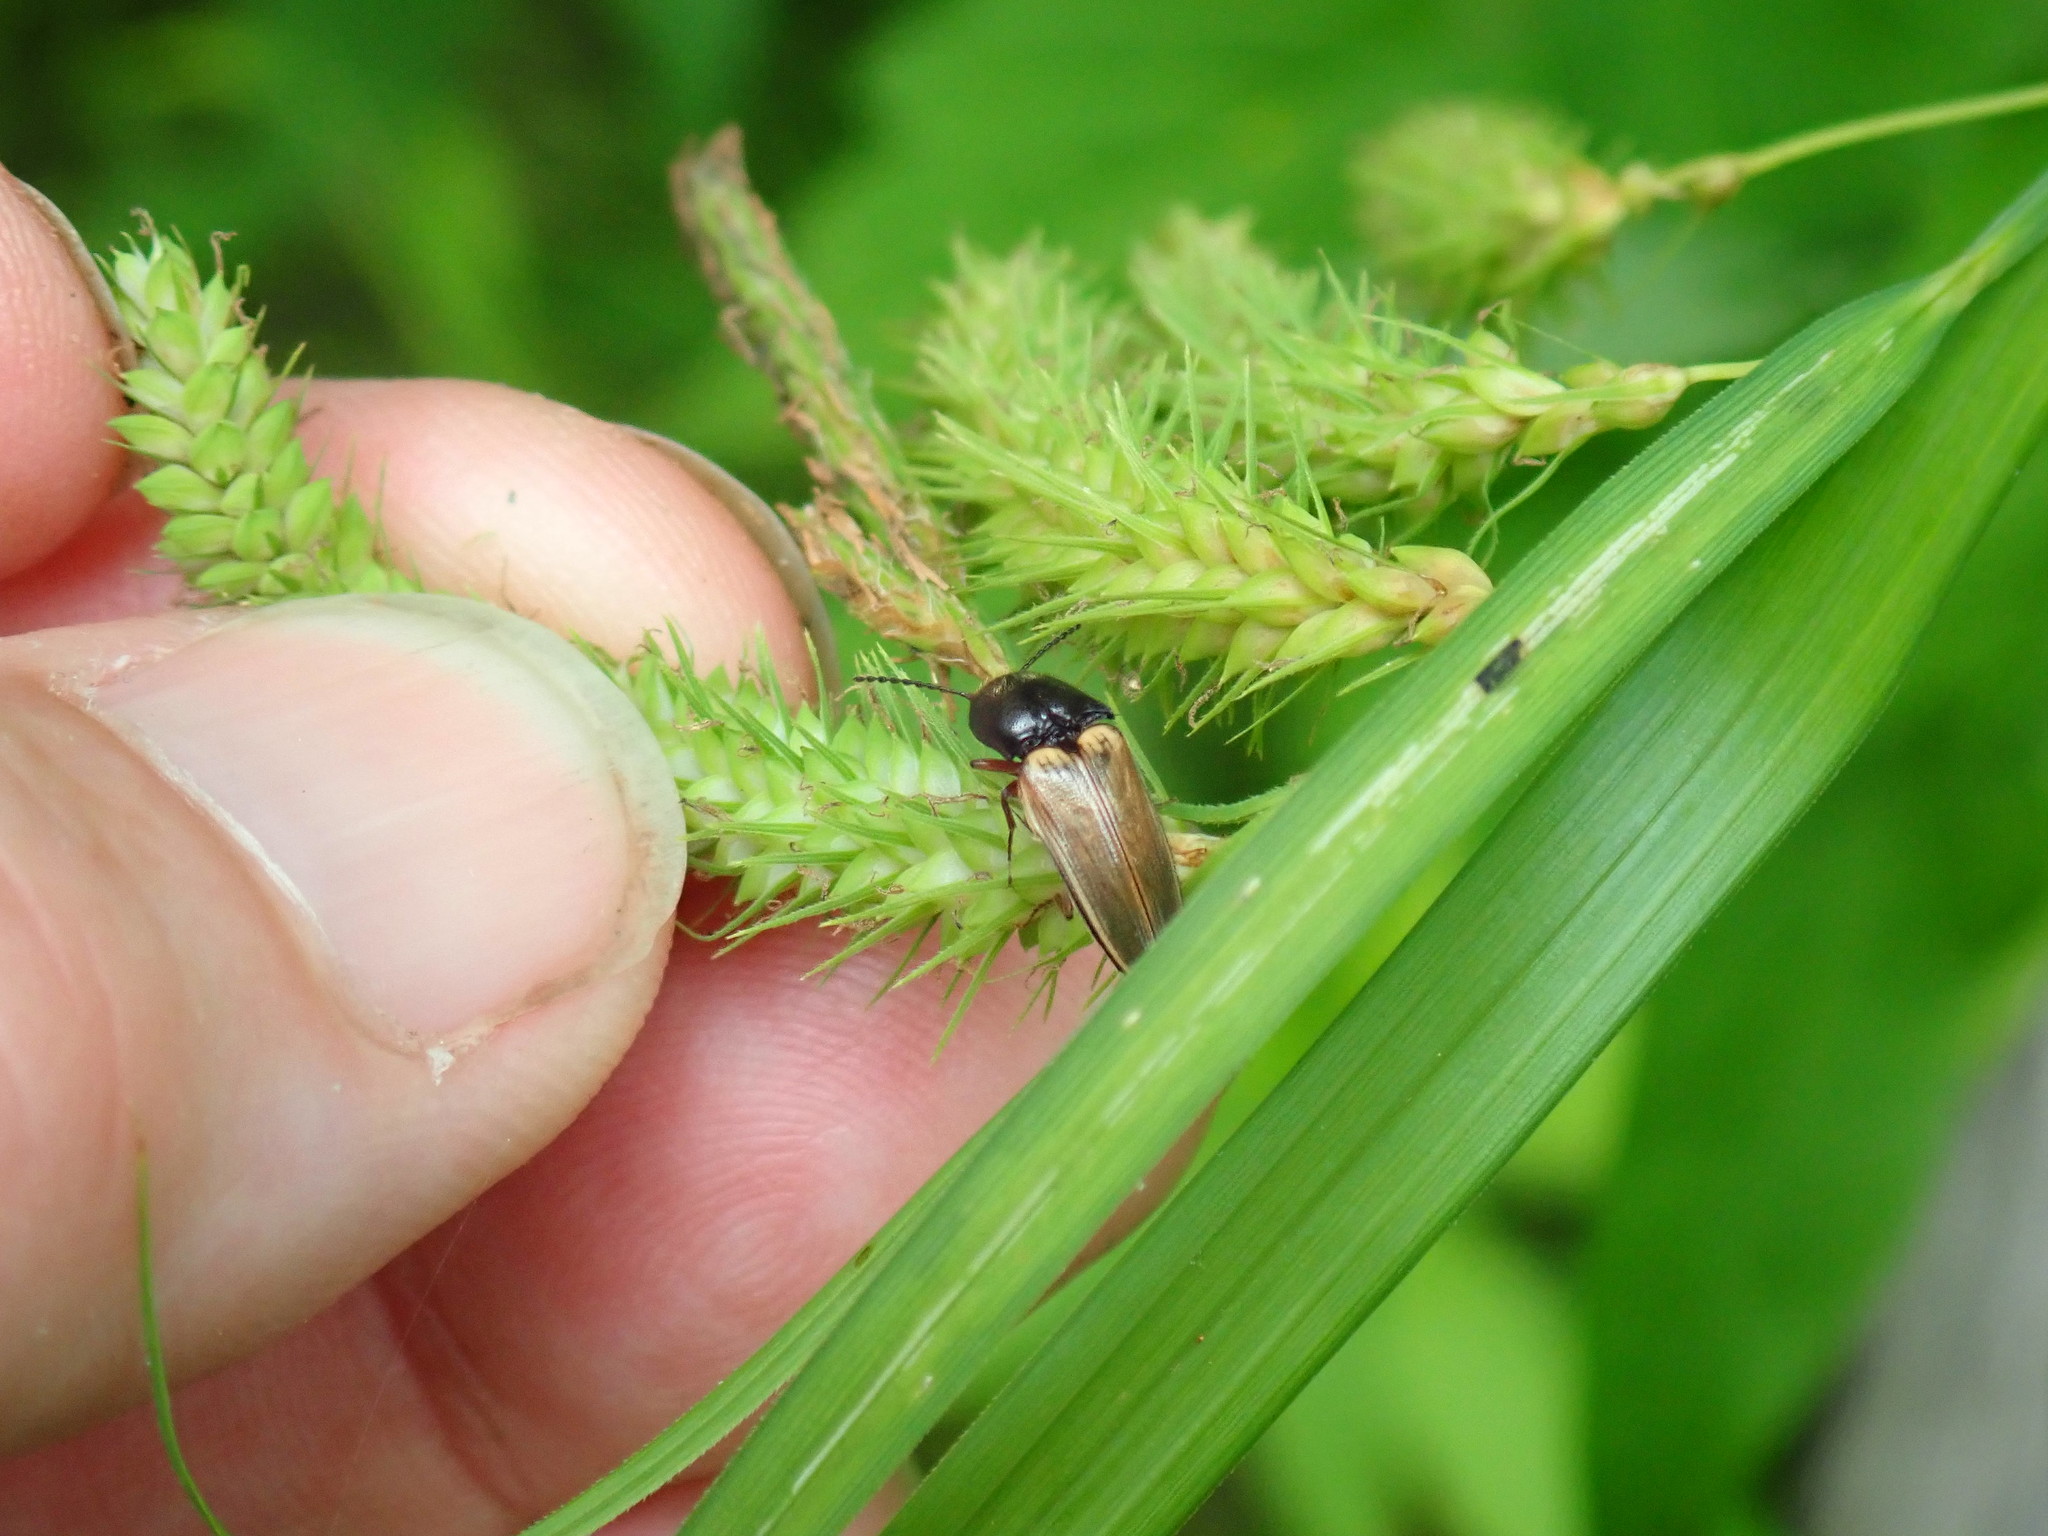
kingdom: Animalia
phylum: Arthropoda
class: Insecta
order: Coleoptera
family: Elateridae
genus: Ampedus
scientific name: Ampedus nigricollis
